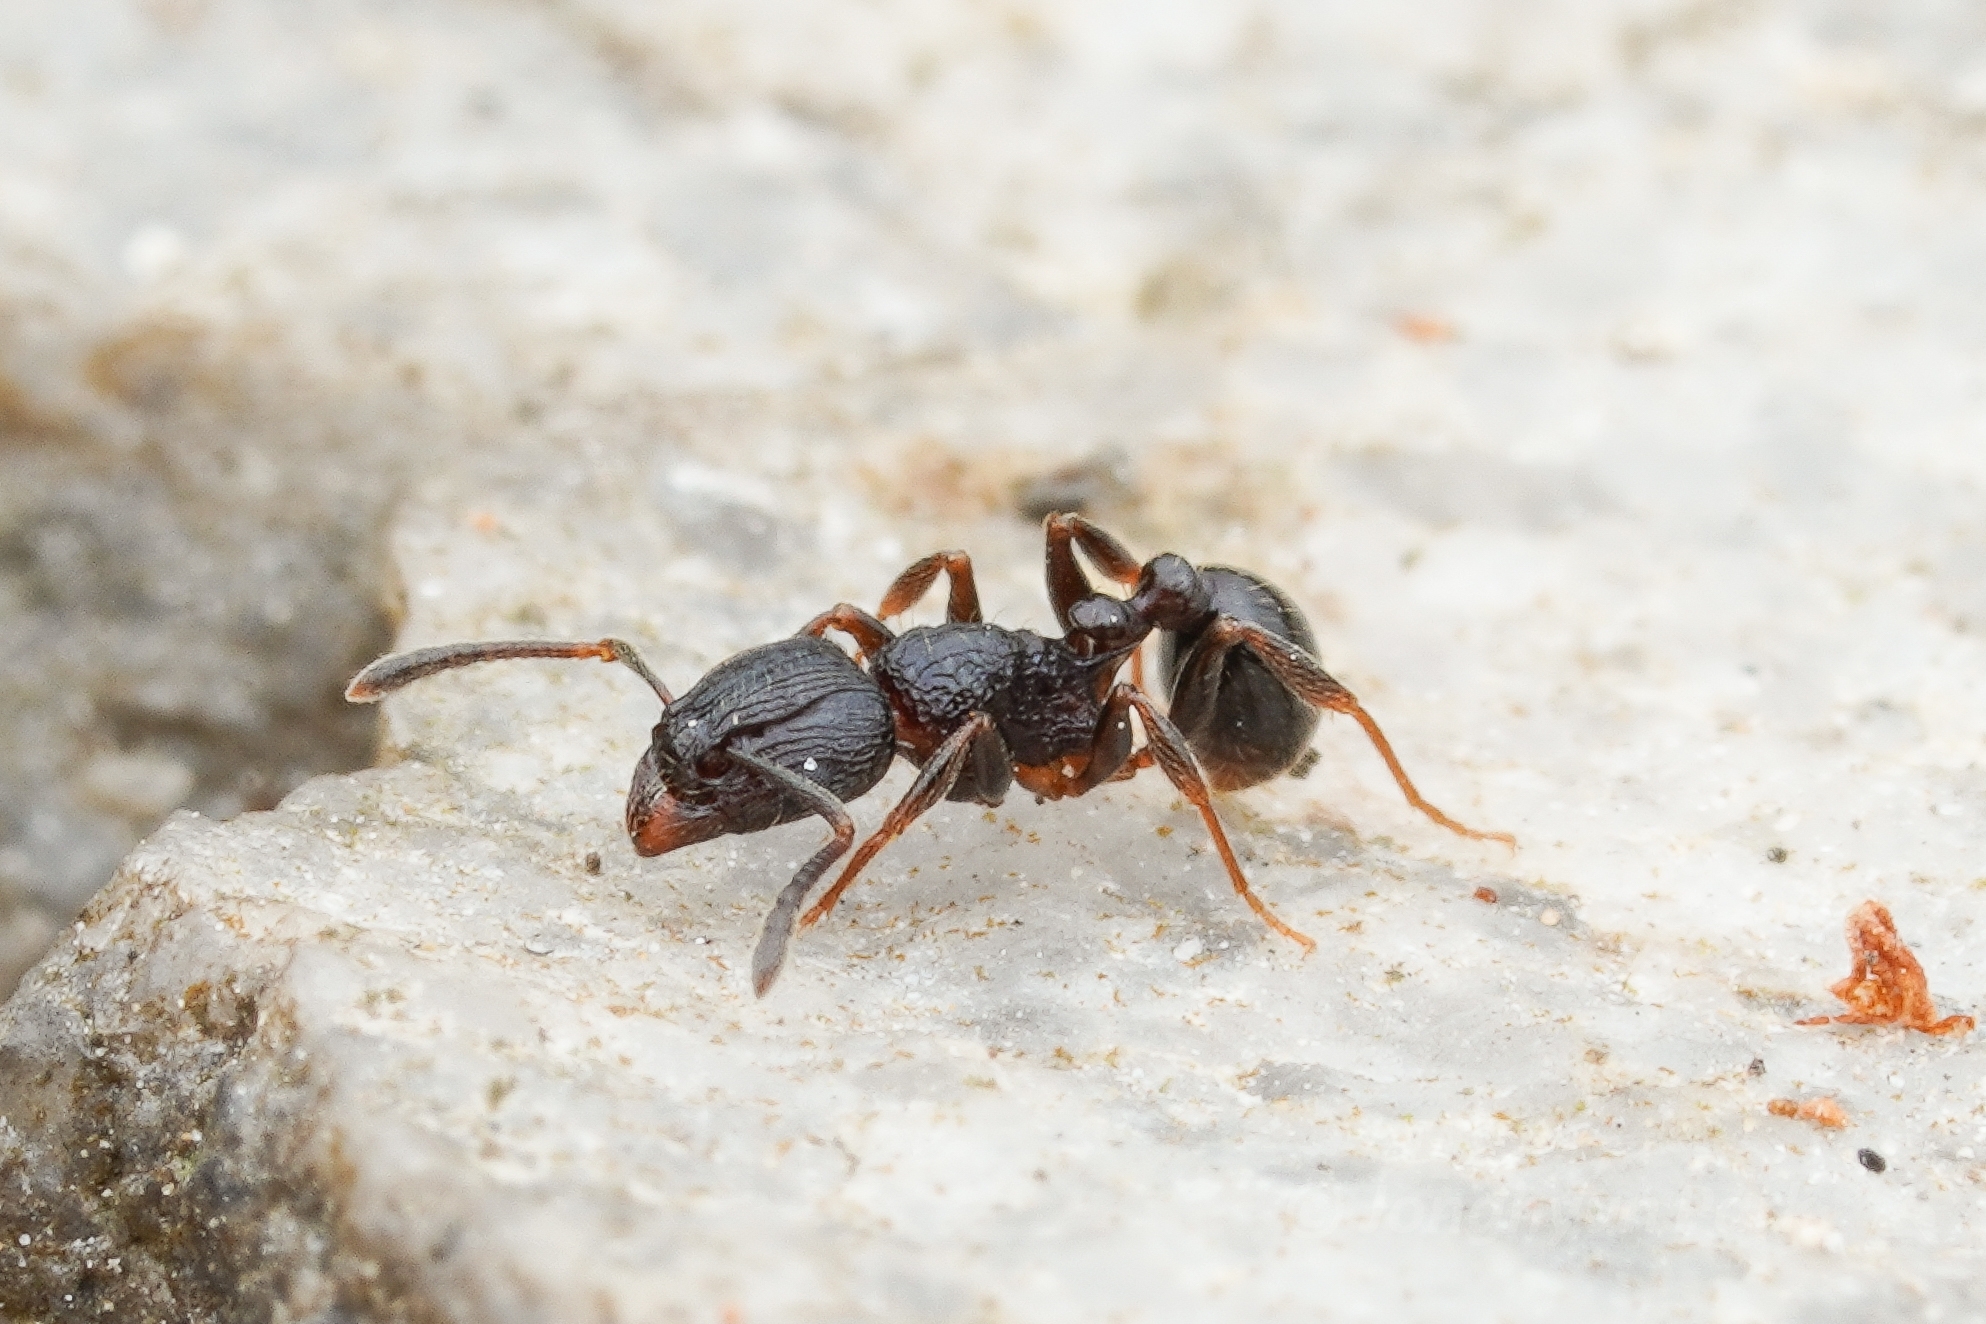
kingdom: Animalia
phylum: Arthropoda
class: Insecta
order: Hymenoptera
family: Formicidae
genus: Tetramorium
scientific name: Tetramorium grassii
